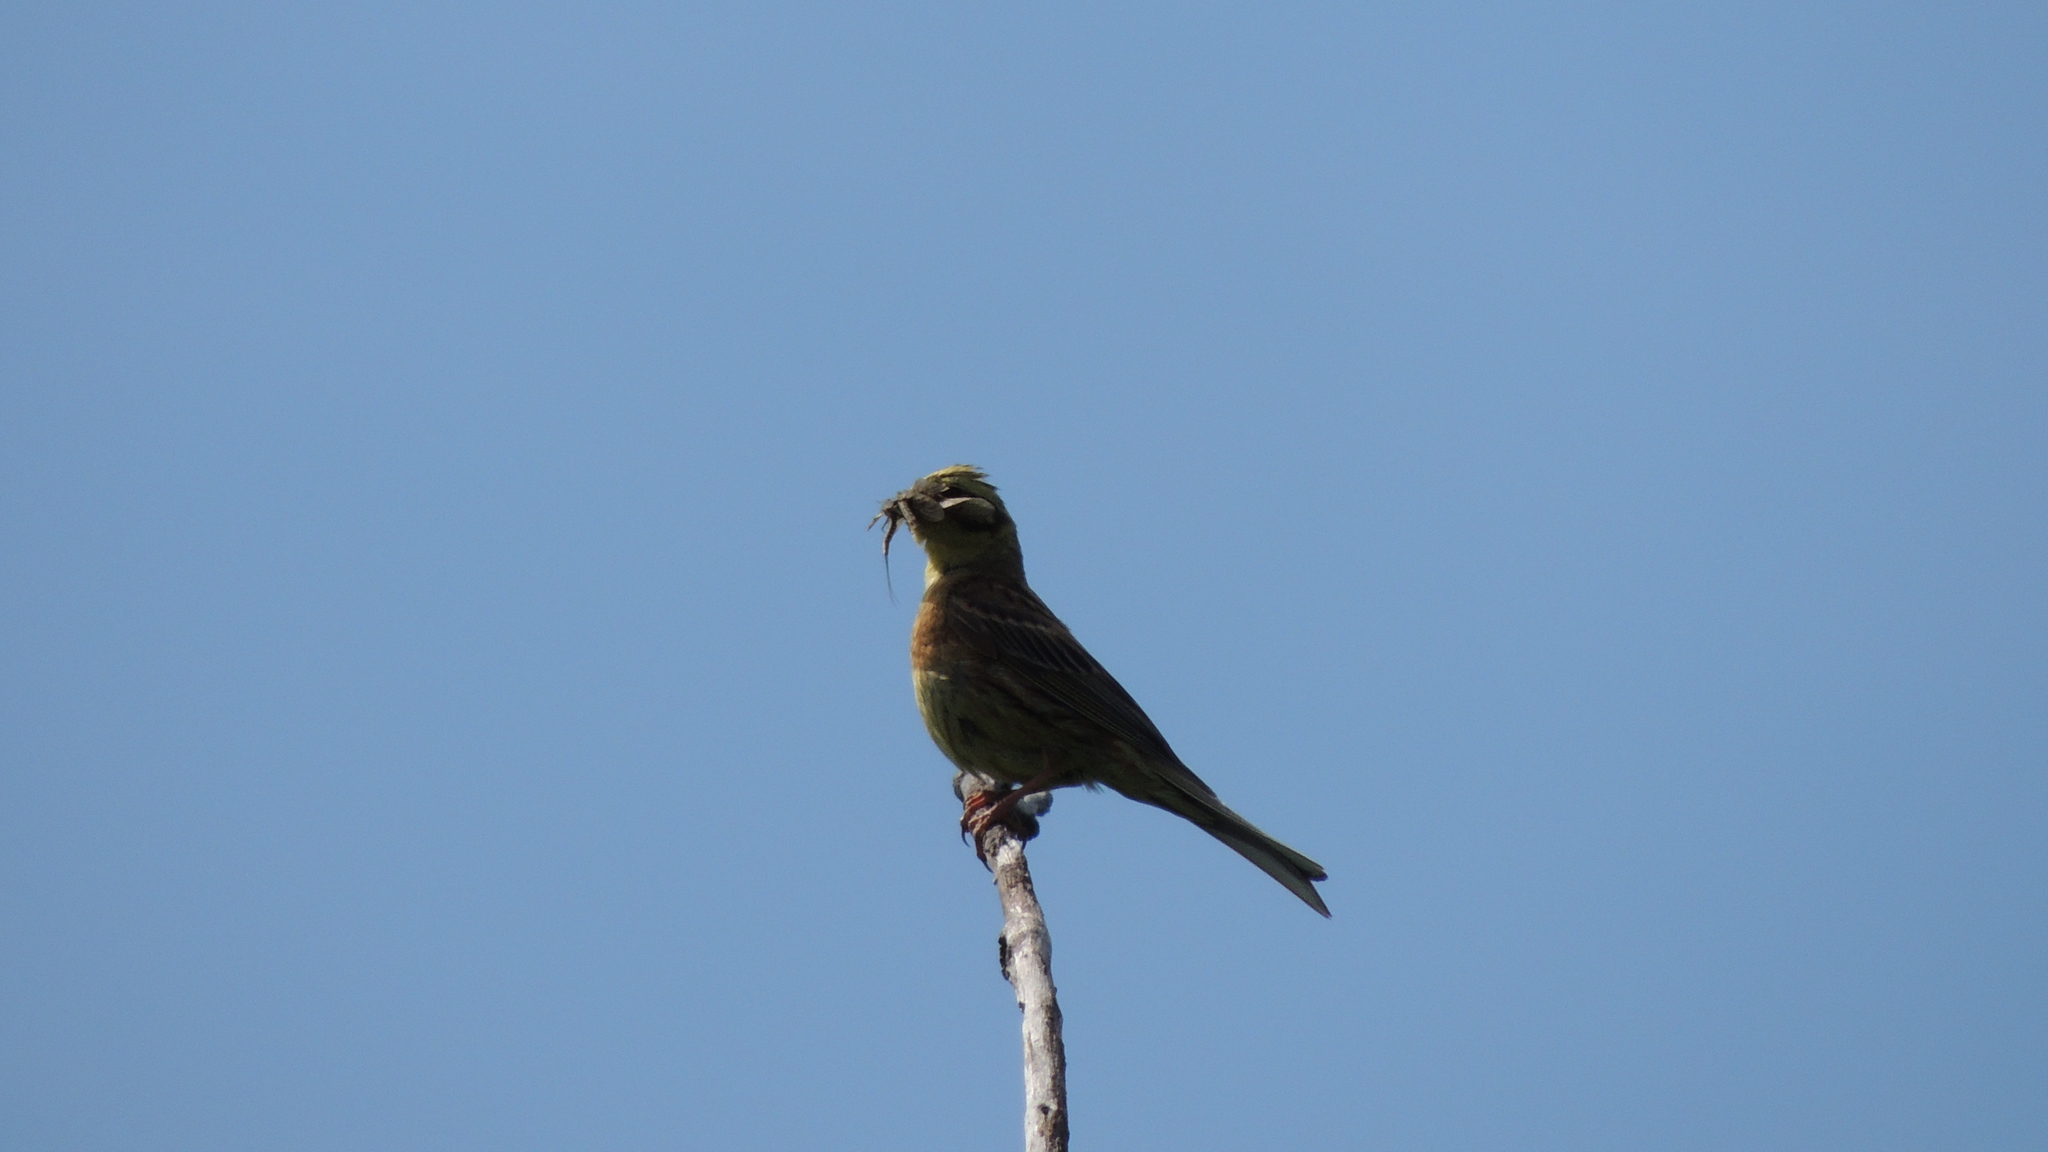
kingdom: Animalia
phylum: Chordata
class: Aves
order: Passeriformes
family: Emberizidae
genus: Emberiza
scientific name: Emberiza citrinella
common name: Yellowhammer
